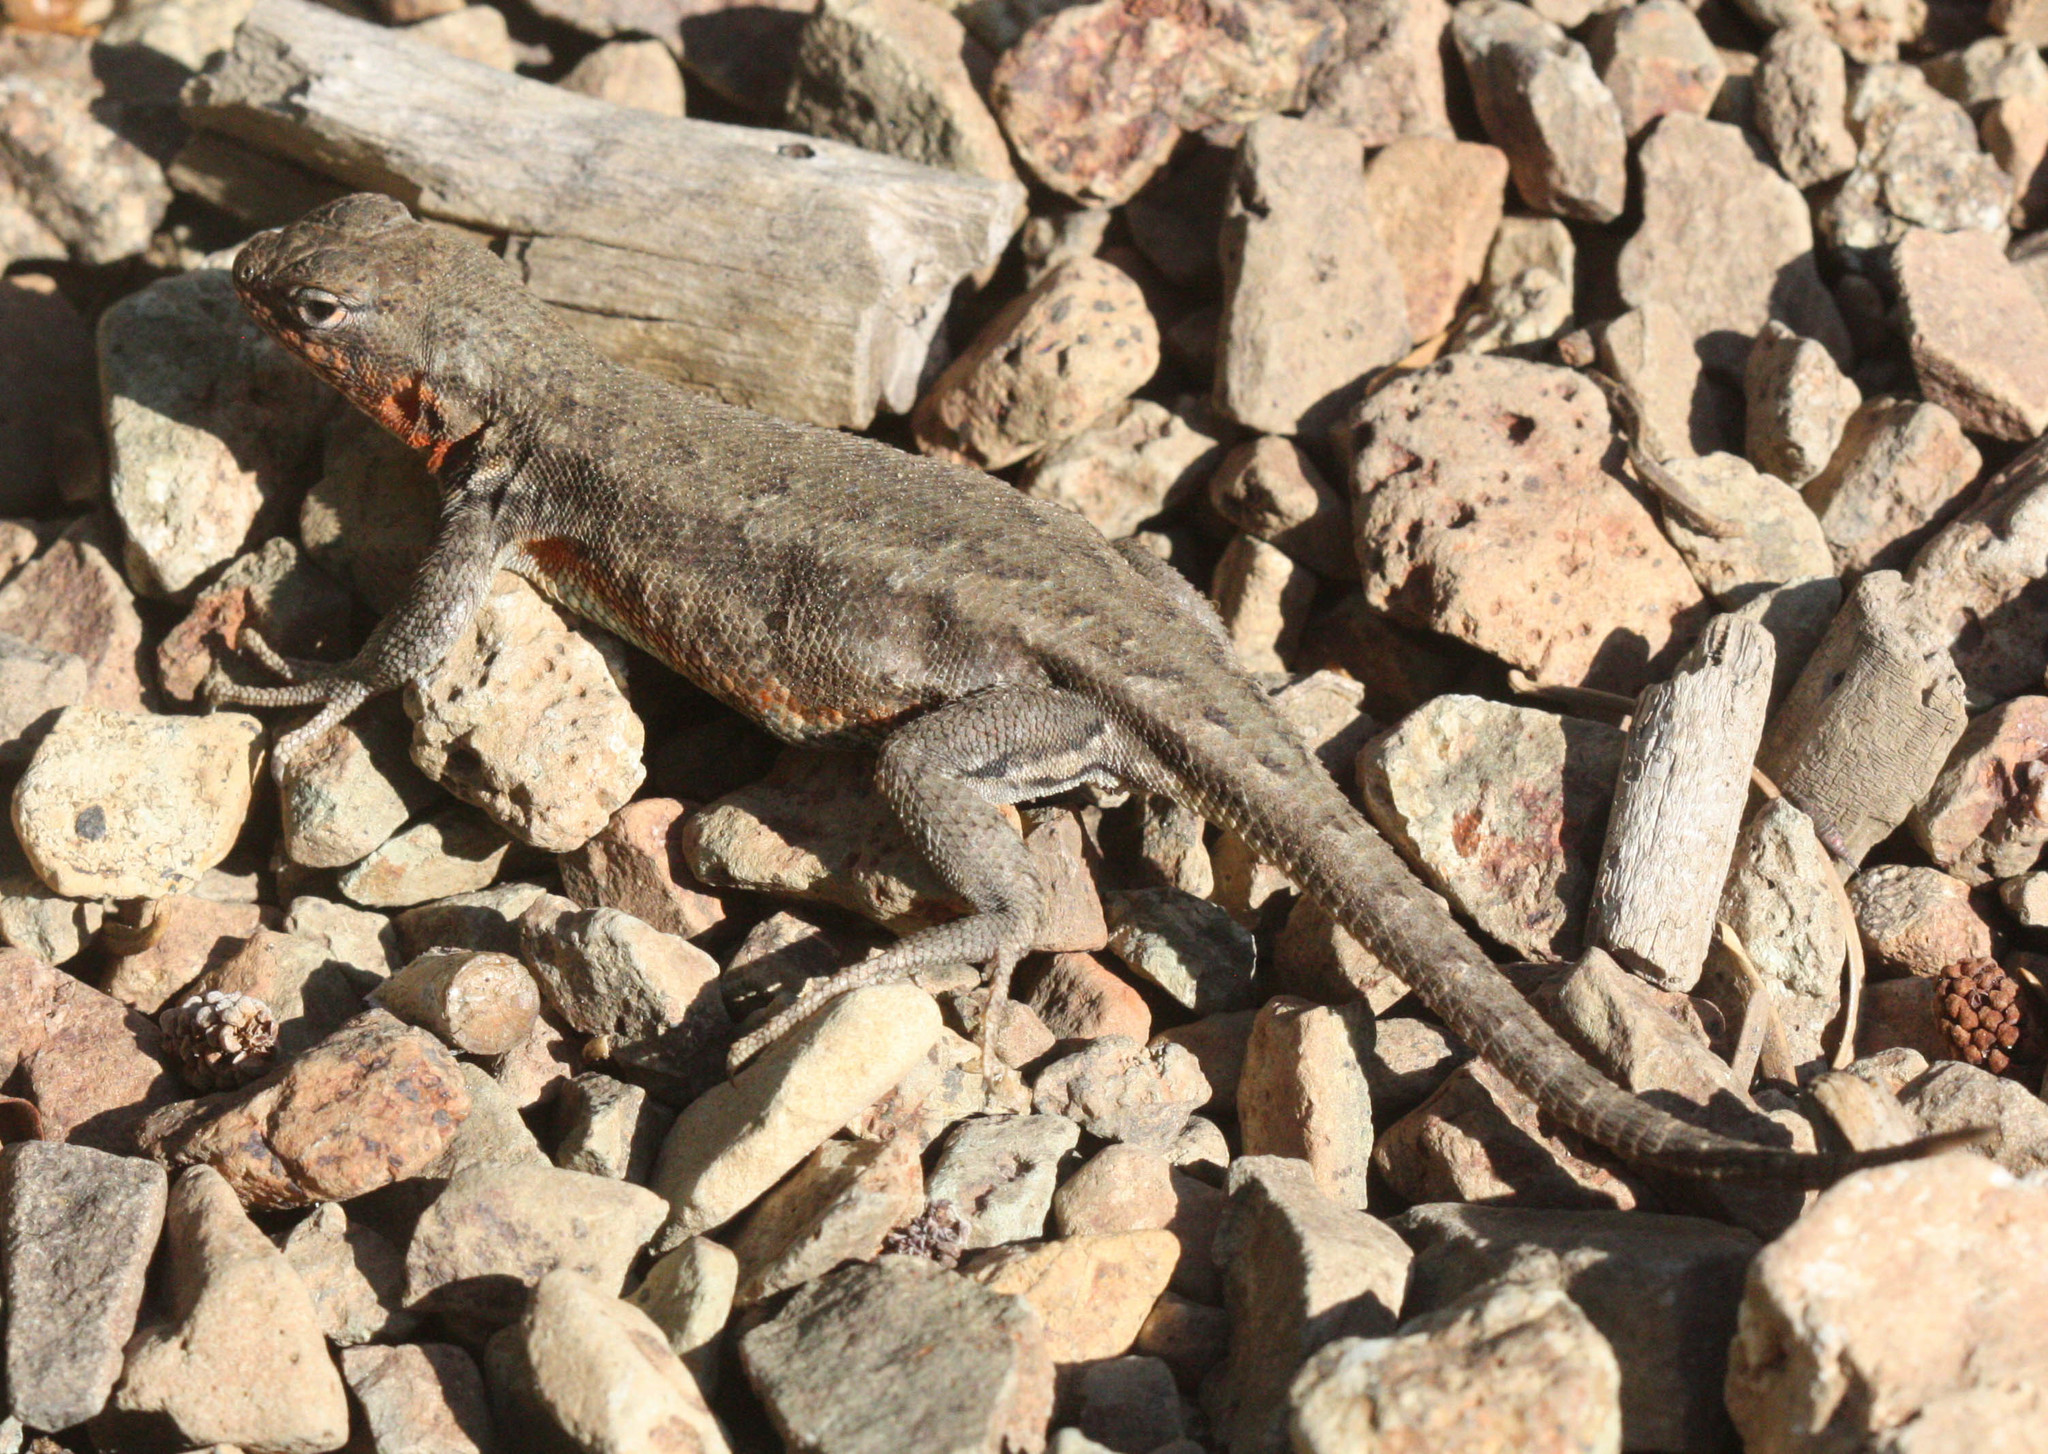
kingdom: Animalia
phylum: Chordata
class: Squamata
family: Phrynosomatidae
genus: Sceloporus
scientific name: Sceloporus graciosus
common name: Sagebrush lizard
